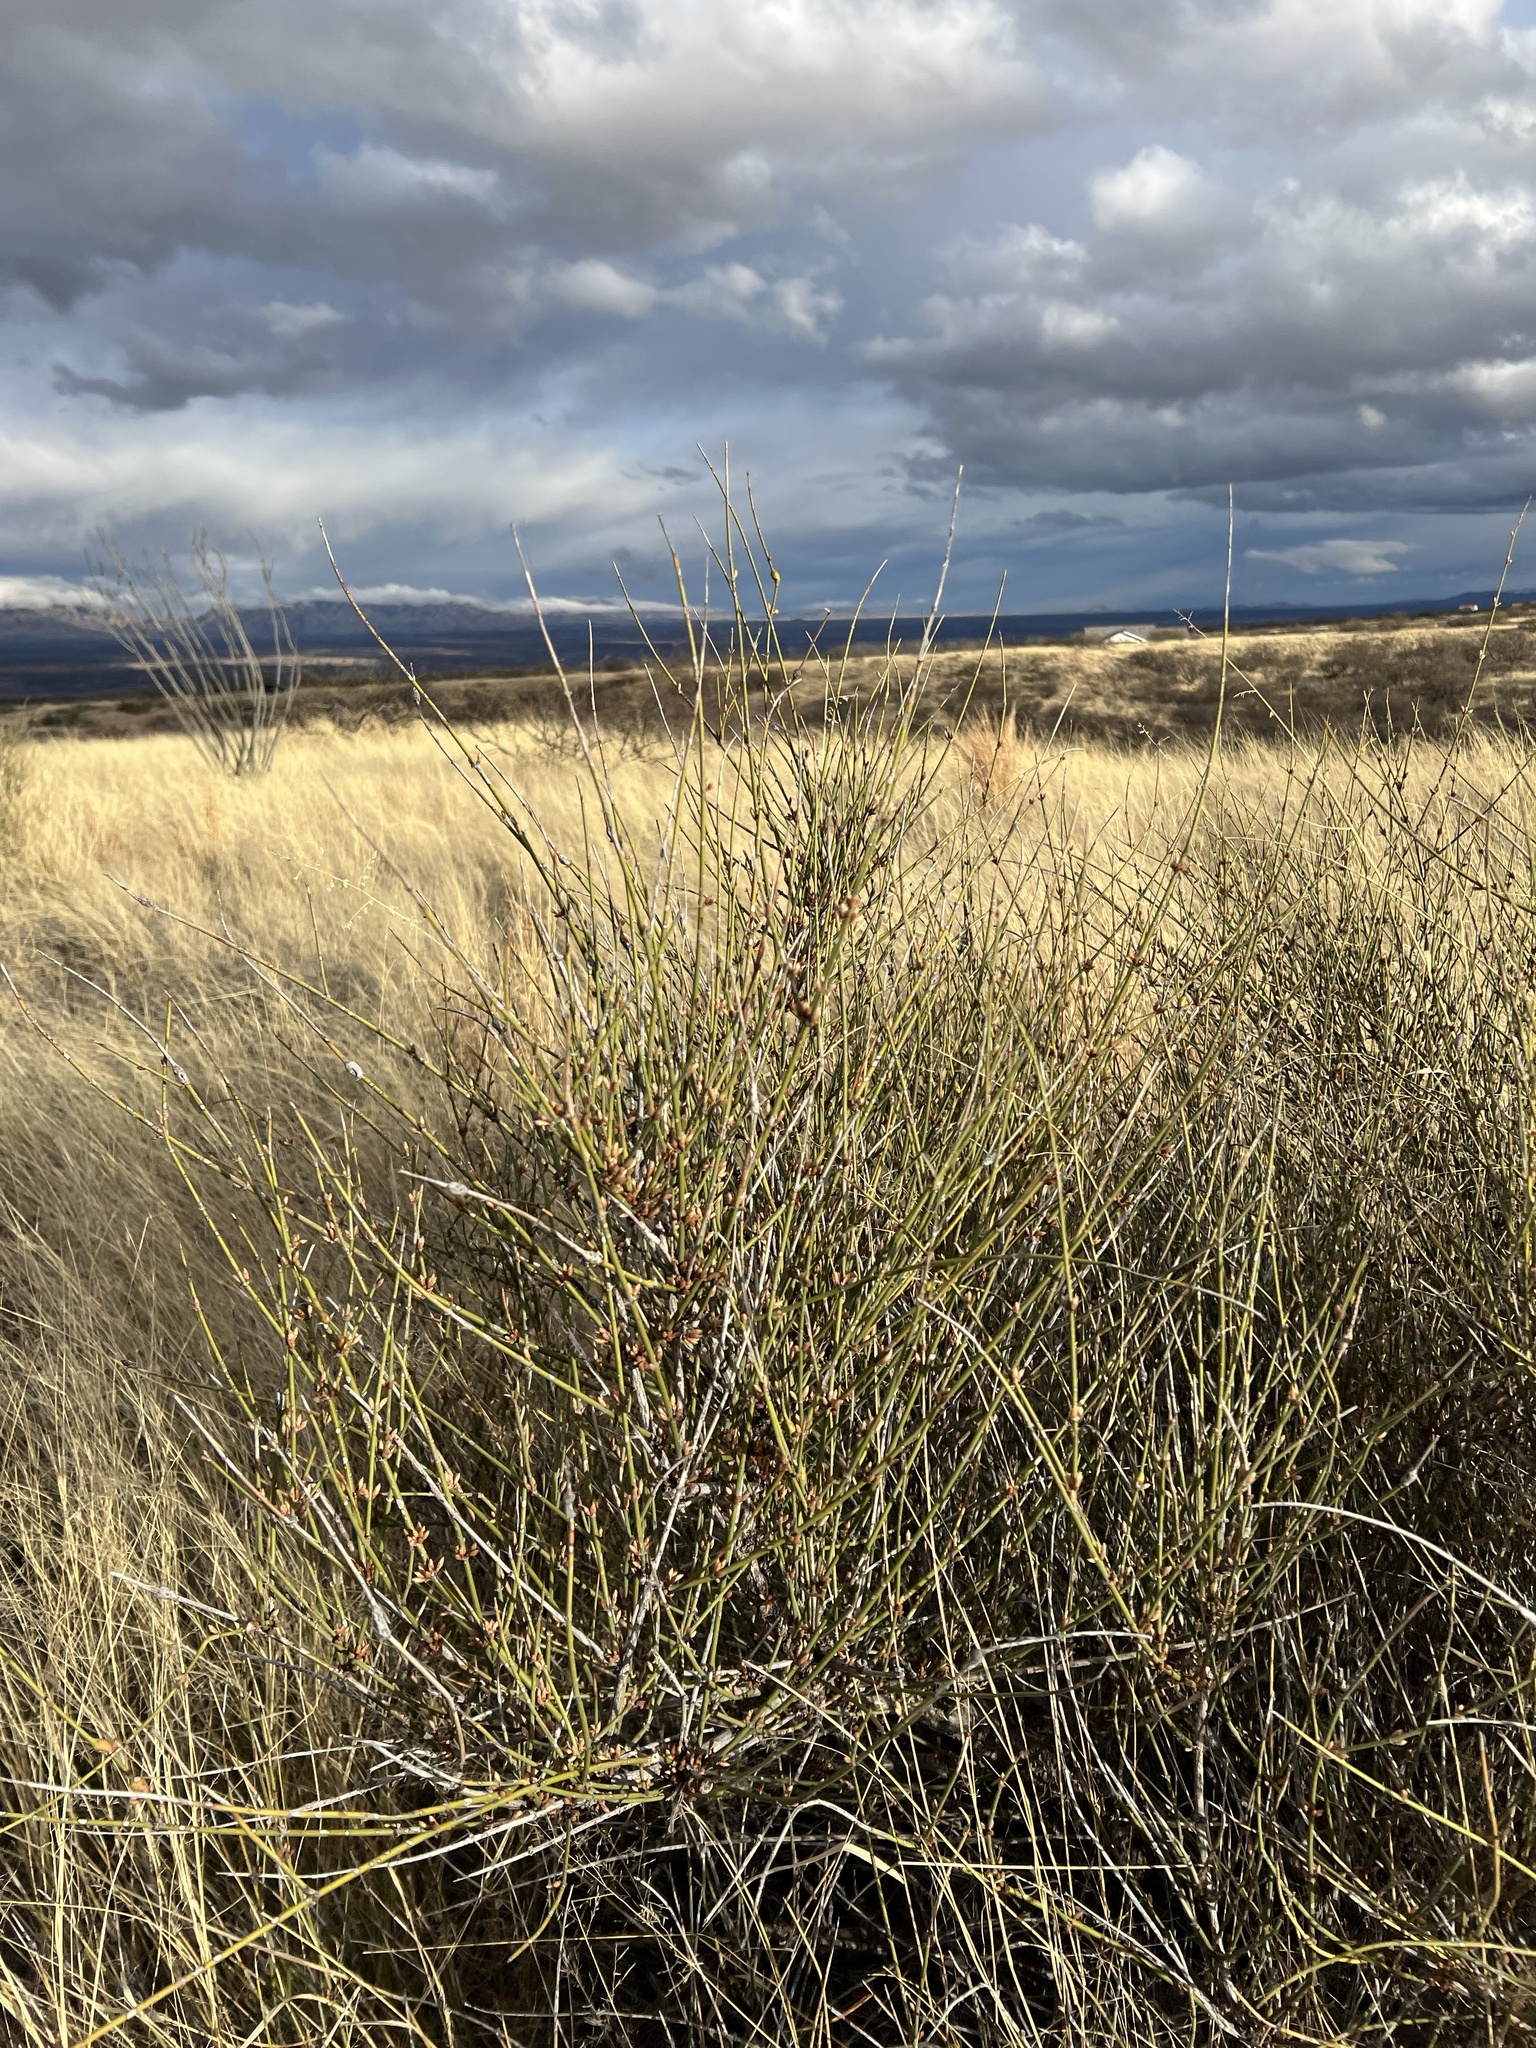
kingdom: Plantae
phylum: Tracheophyta
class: Gnetopsida
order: Ephedrales
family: Ephedraceae
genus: Ephedra
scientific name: Ephedra trifurca
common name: Mexican-tea
